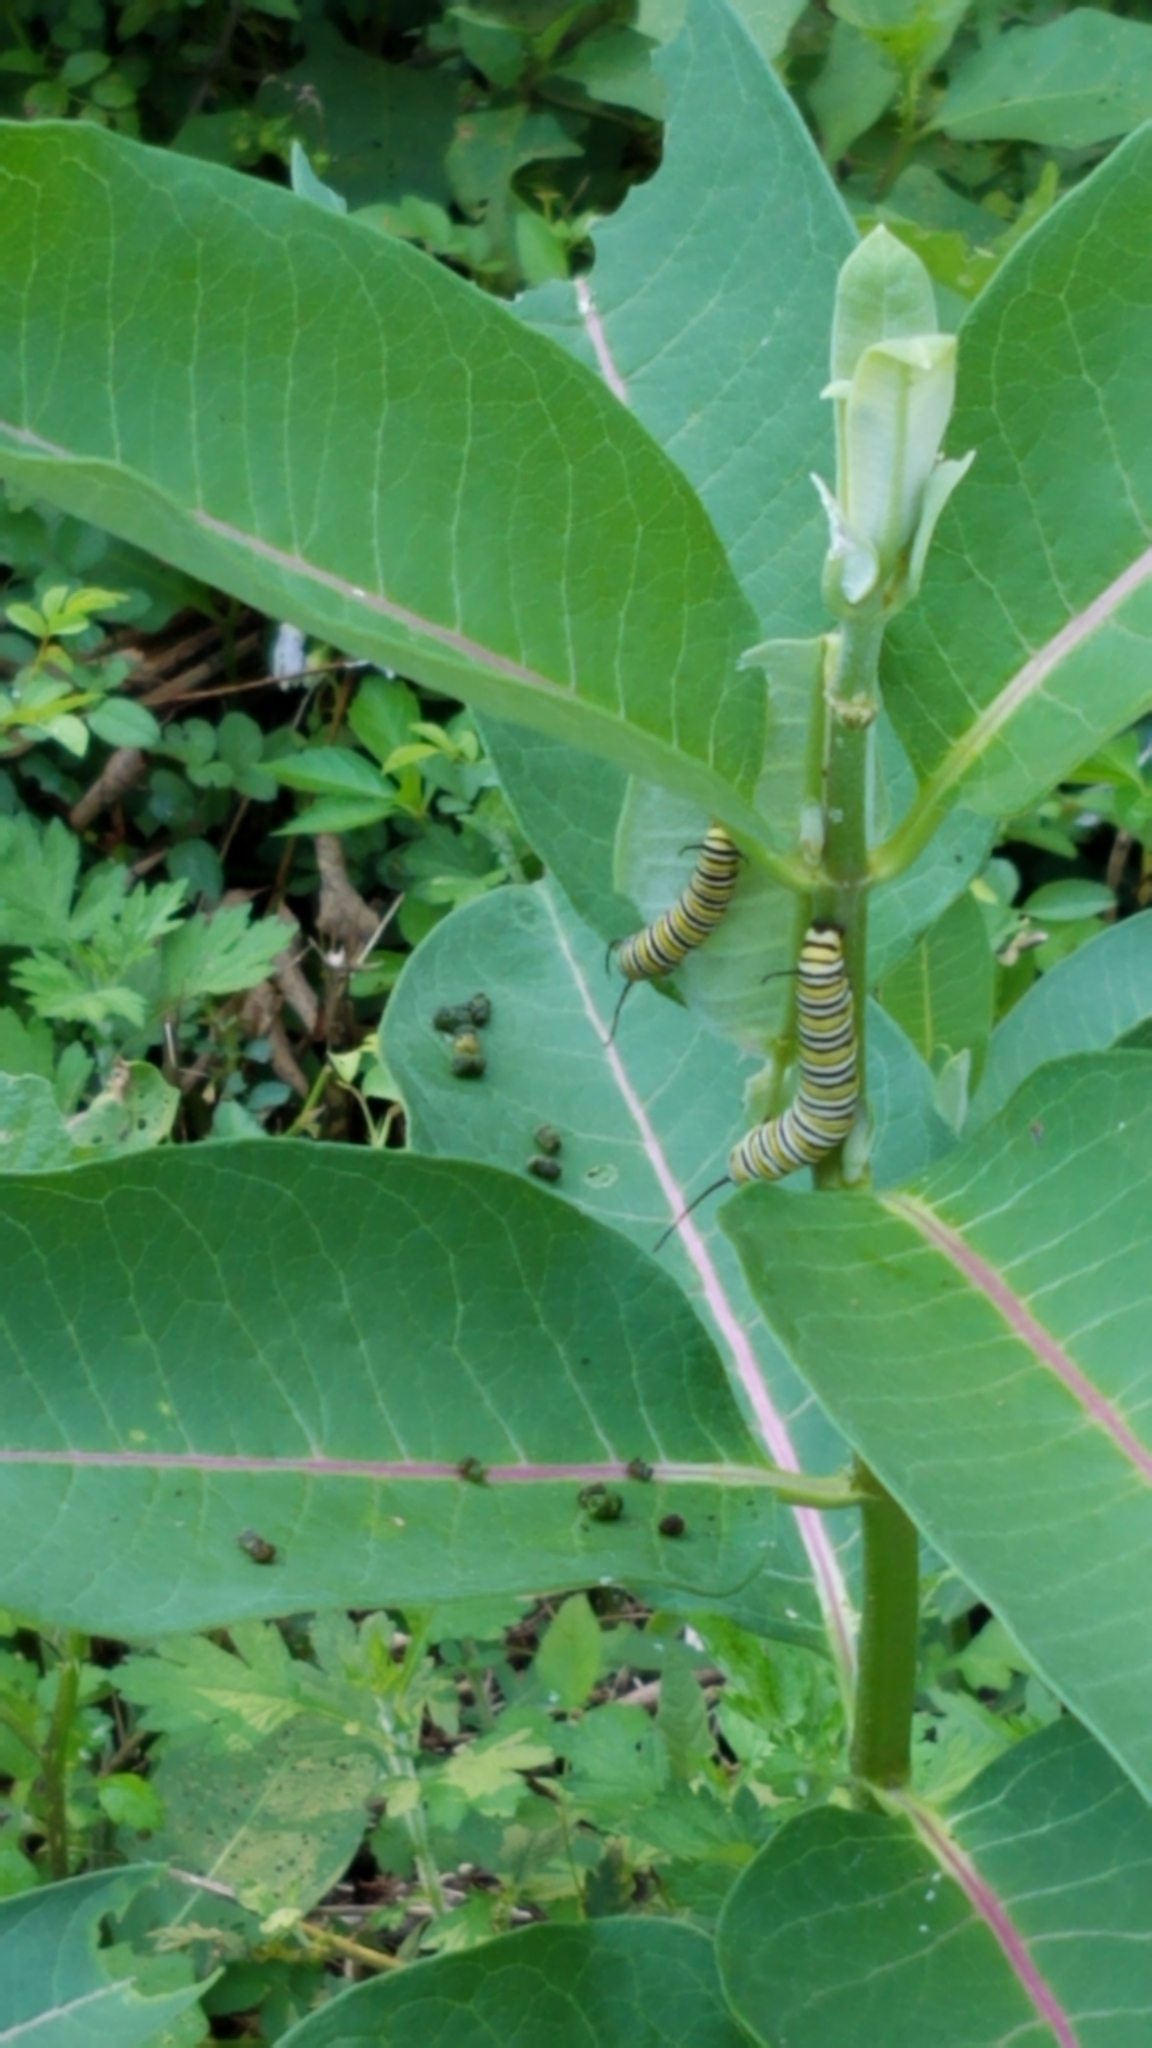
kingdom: Animalia
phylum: Arthropoda
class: Insecta
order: Lepidoptera
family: Nymphalidae
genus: Danaus
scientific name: Danaus plexippus
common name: Monarch
